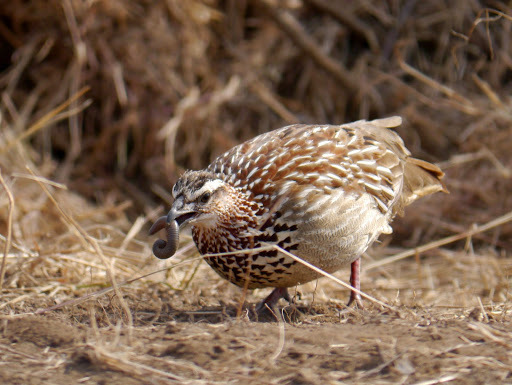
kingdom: Animalia
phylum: Chordata
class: Aves
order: Galliformes
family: Phasianidae
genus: Ortygornis
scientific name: Ortygornis sephaena
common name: Crested francolin
